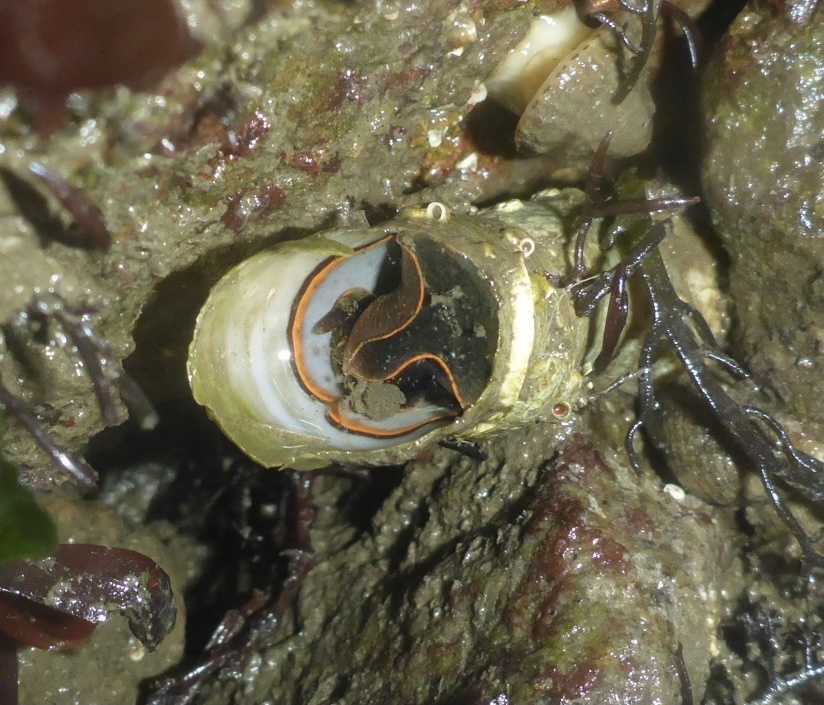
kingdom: Animalia
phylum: Mollusca
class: Gastropoda
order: Littorinimorpha
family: Vermetidae
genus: Thylacodes
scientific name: Thylacodes squamigerus
